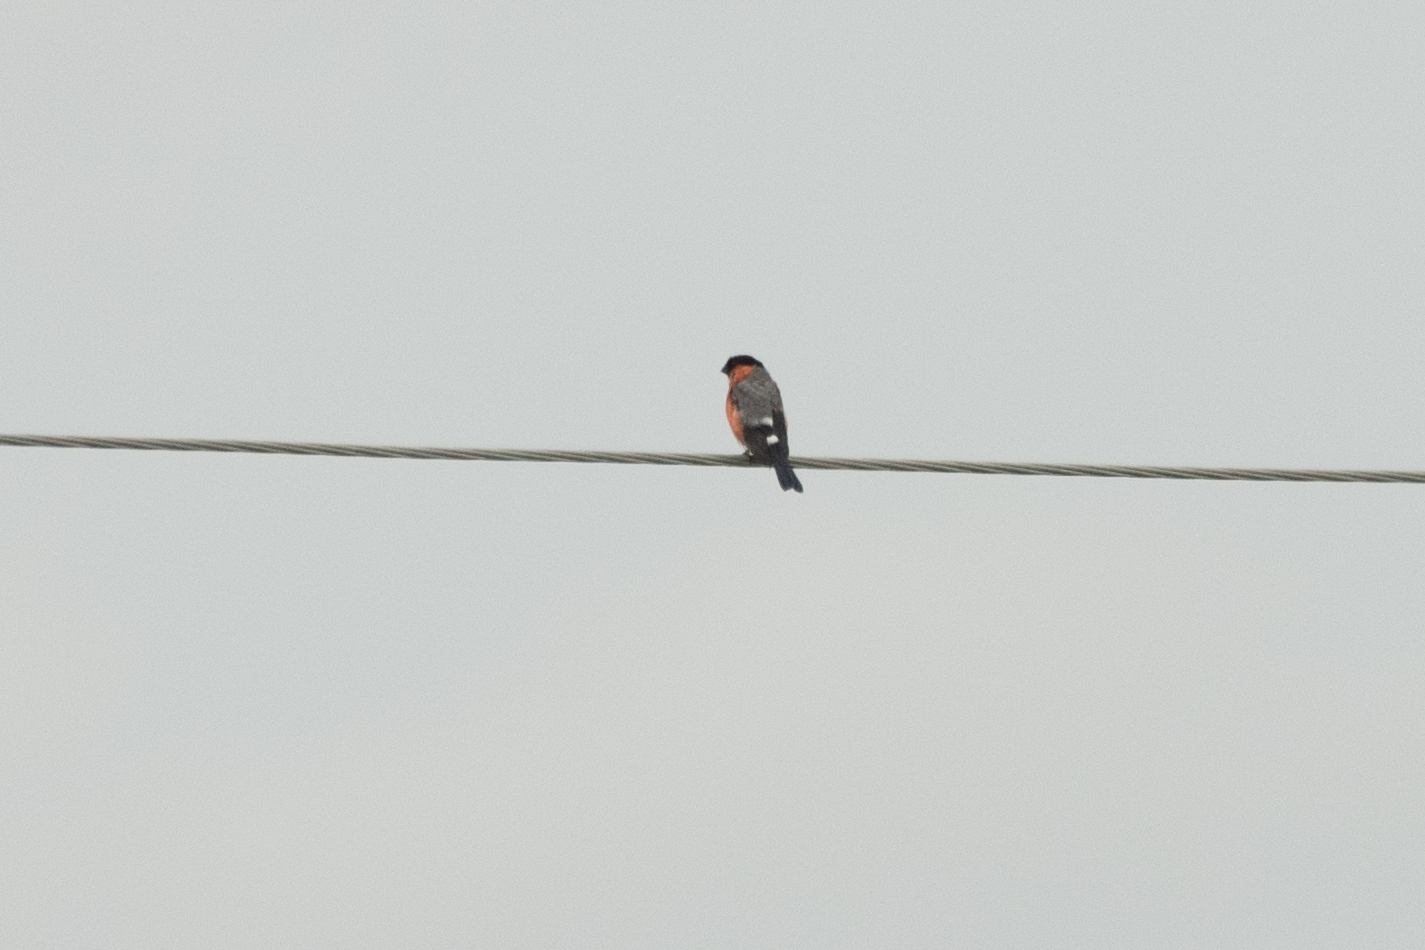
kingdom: Animalia
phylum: Chordata
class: Aves
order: Passeriformes
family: Fringillidae
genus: Pyrrhula
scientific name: Pyrrhula pyrrhula
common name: Eurasian bullfinch
